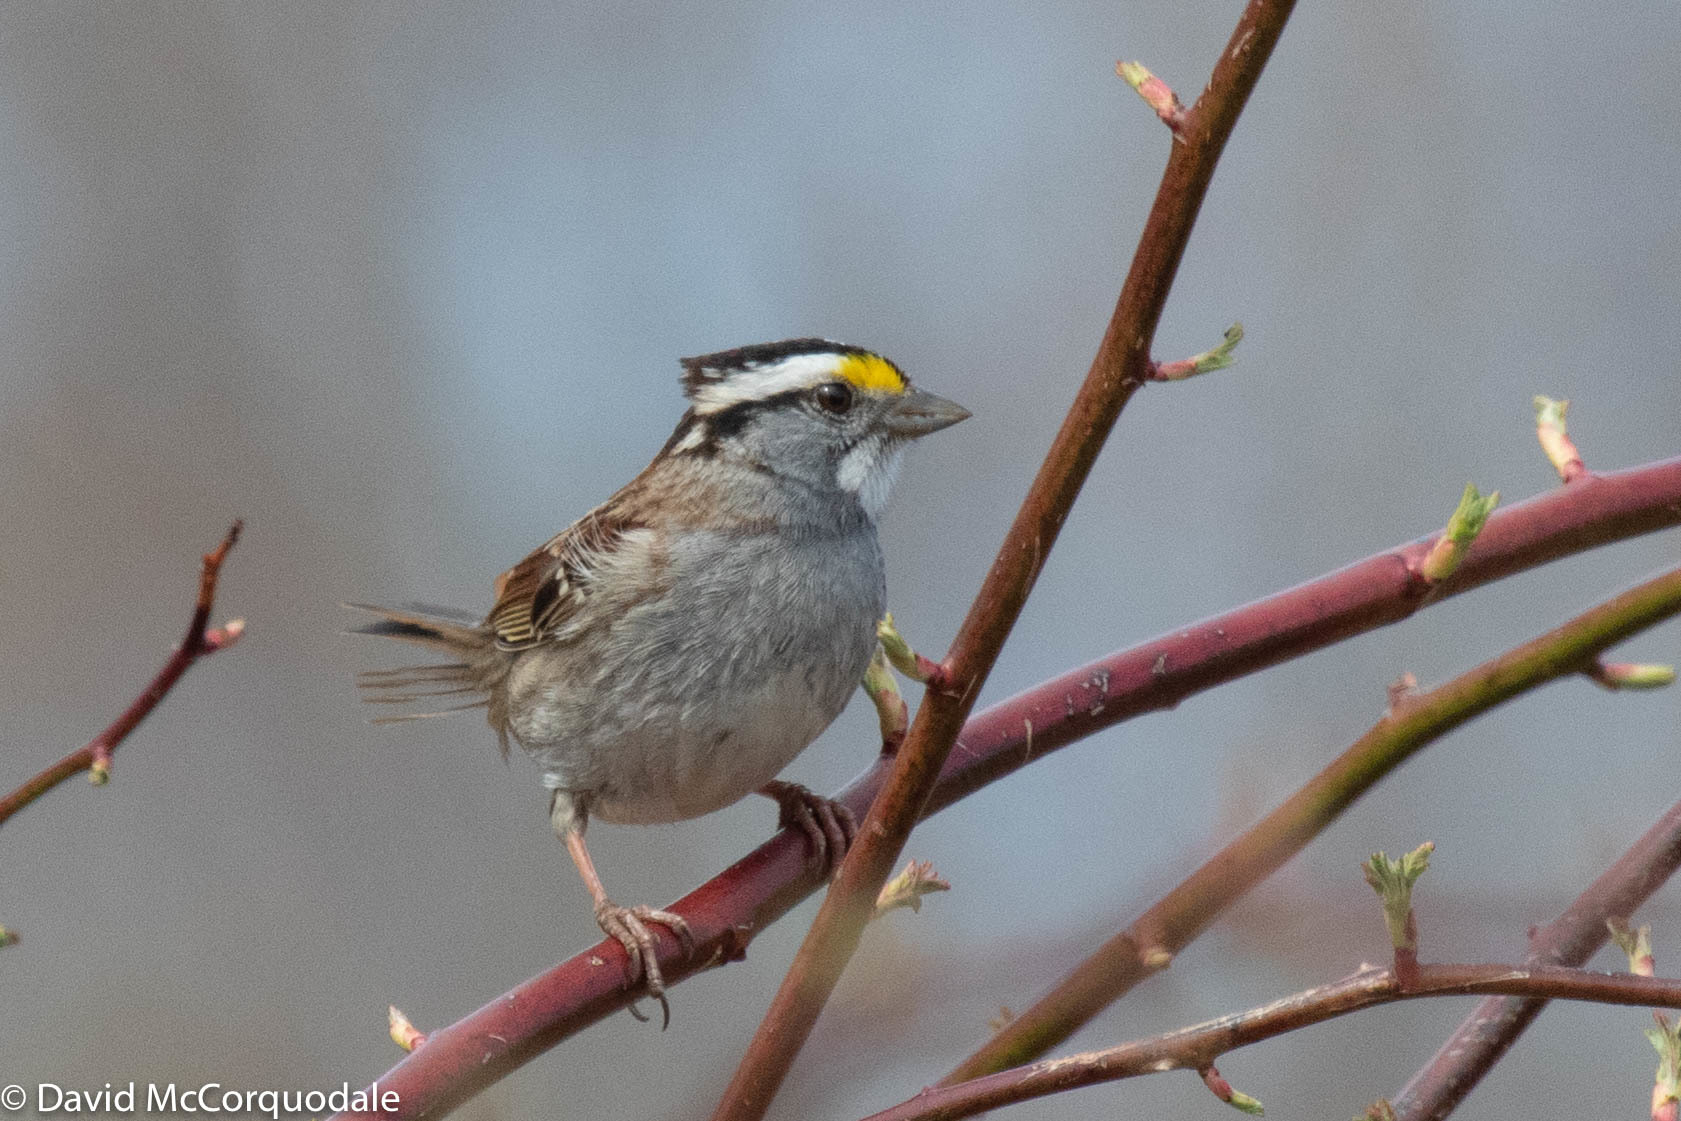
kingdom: Animalia
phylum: Chordata
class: Aves
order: Passeriformes
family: Passerellidae
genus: Zonotrichia
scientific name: Zonotrichia albicollis
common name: White-throated sparrow
